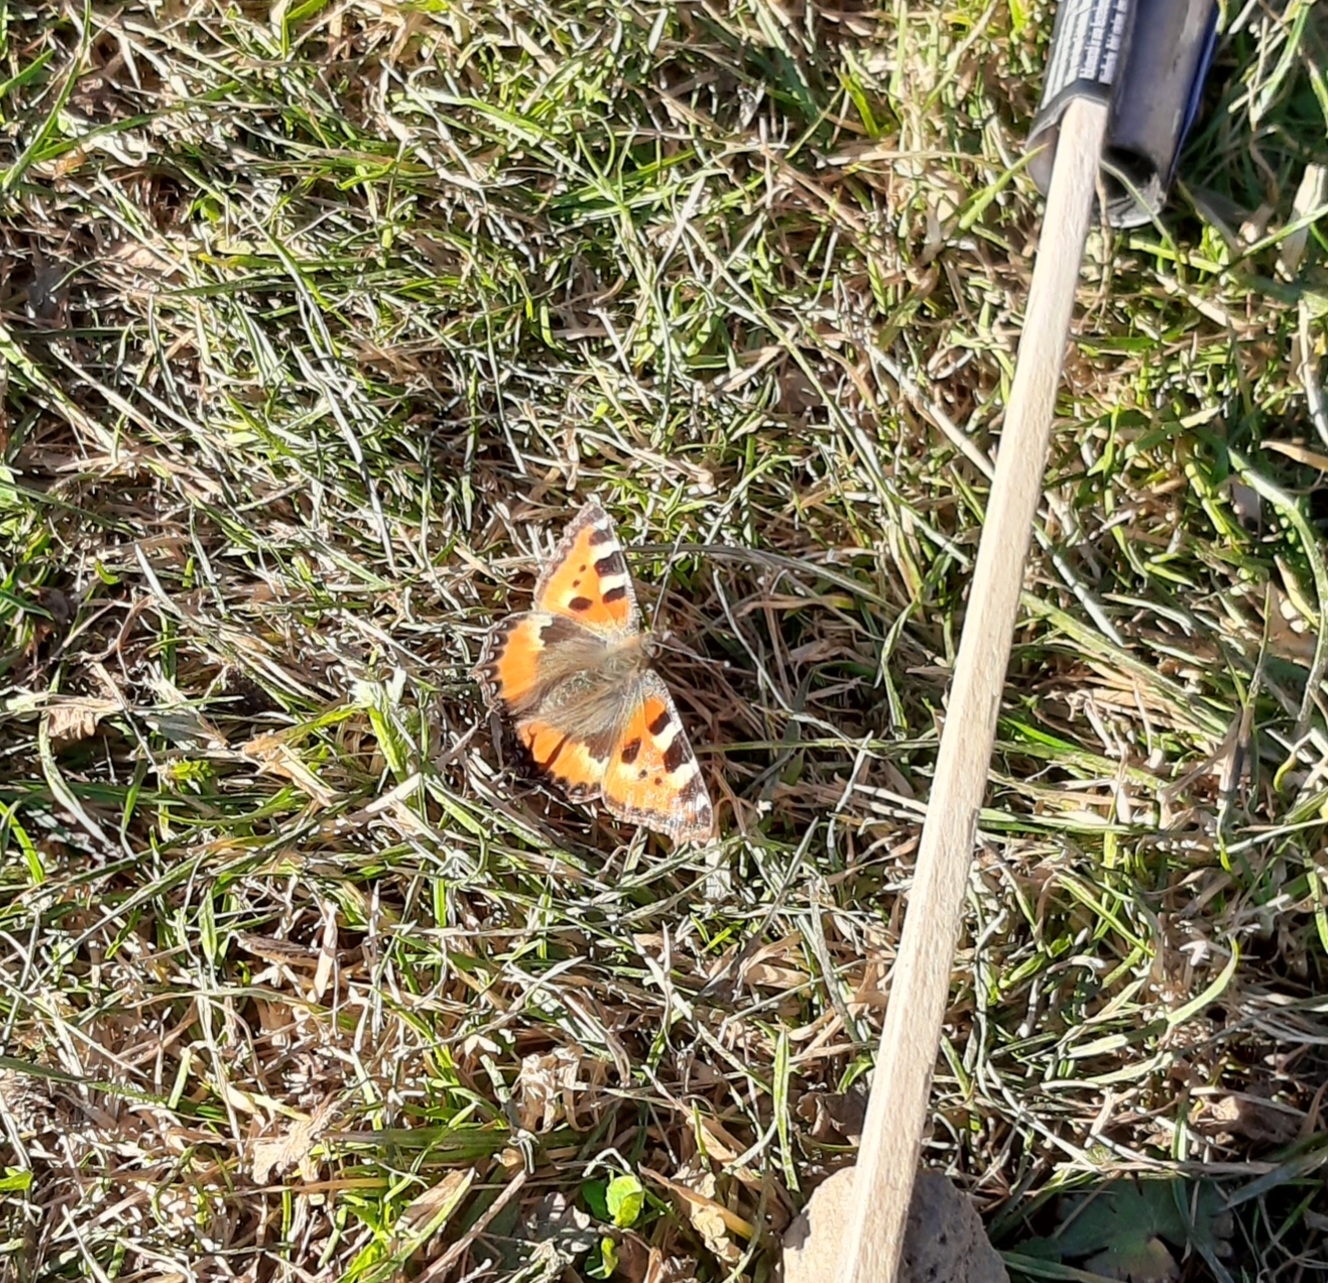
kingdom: Animalia
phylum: Arthropoda
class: Insecta
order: Lepidoptera
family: Nymphalidae
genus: Aglais
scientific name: Aglais urticae
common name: Small tortoiseshell
